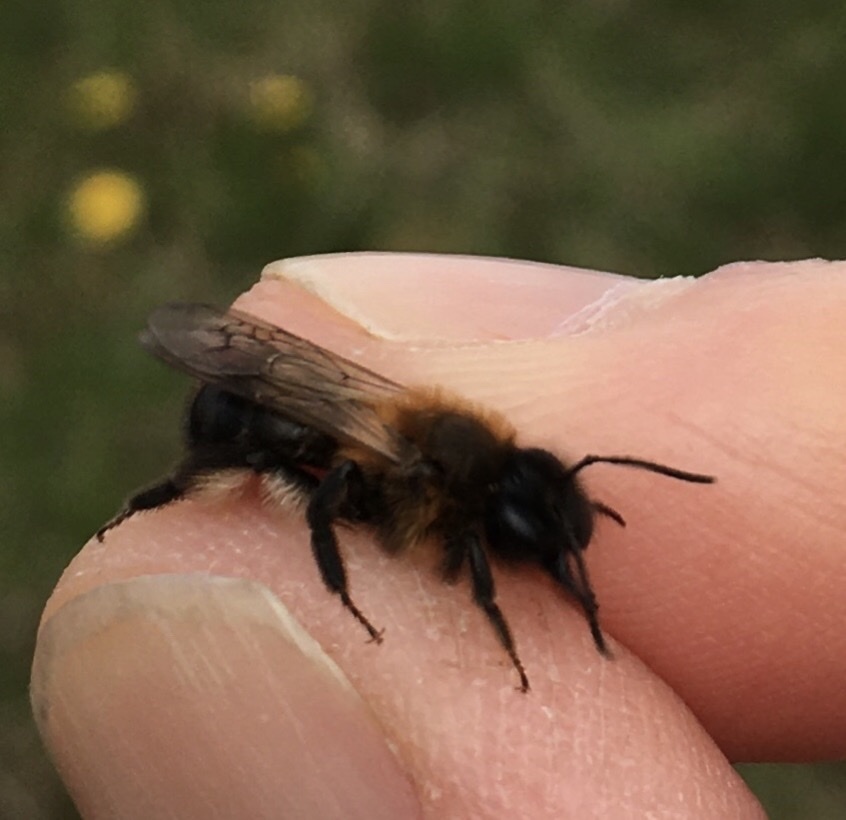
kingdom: Animalia
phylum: Arthropoda
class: Insecta
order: Hymenoptera
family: Andrenidae
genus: Andrena
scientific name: Andrena carantonica
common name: Chocolate mining bee
